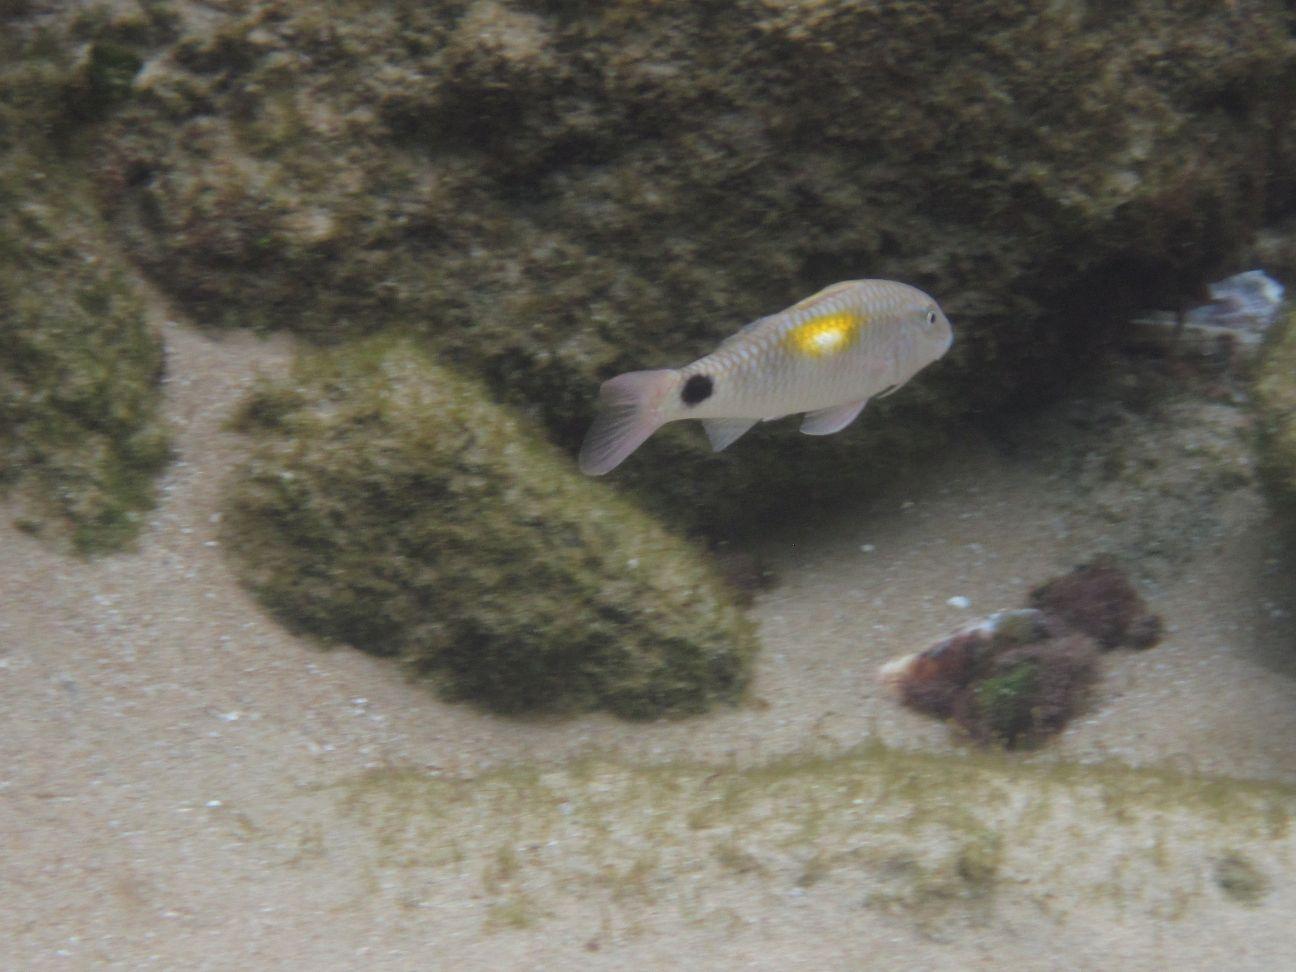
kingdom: Animalia
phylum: Chordata
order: Perciformes
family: Mullidae
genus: Parupeneus
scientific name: Parupeneus indicus
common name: Indian goatfish
